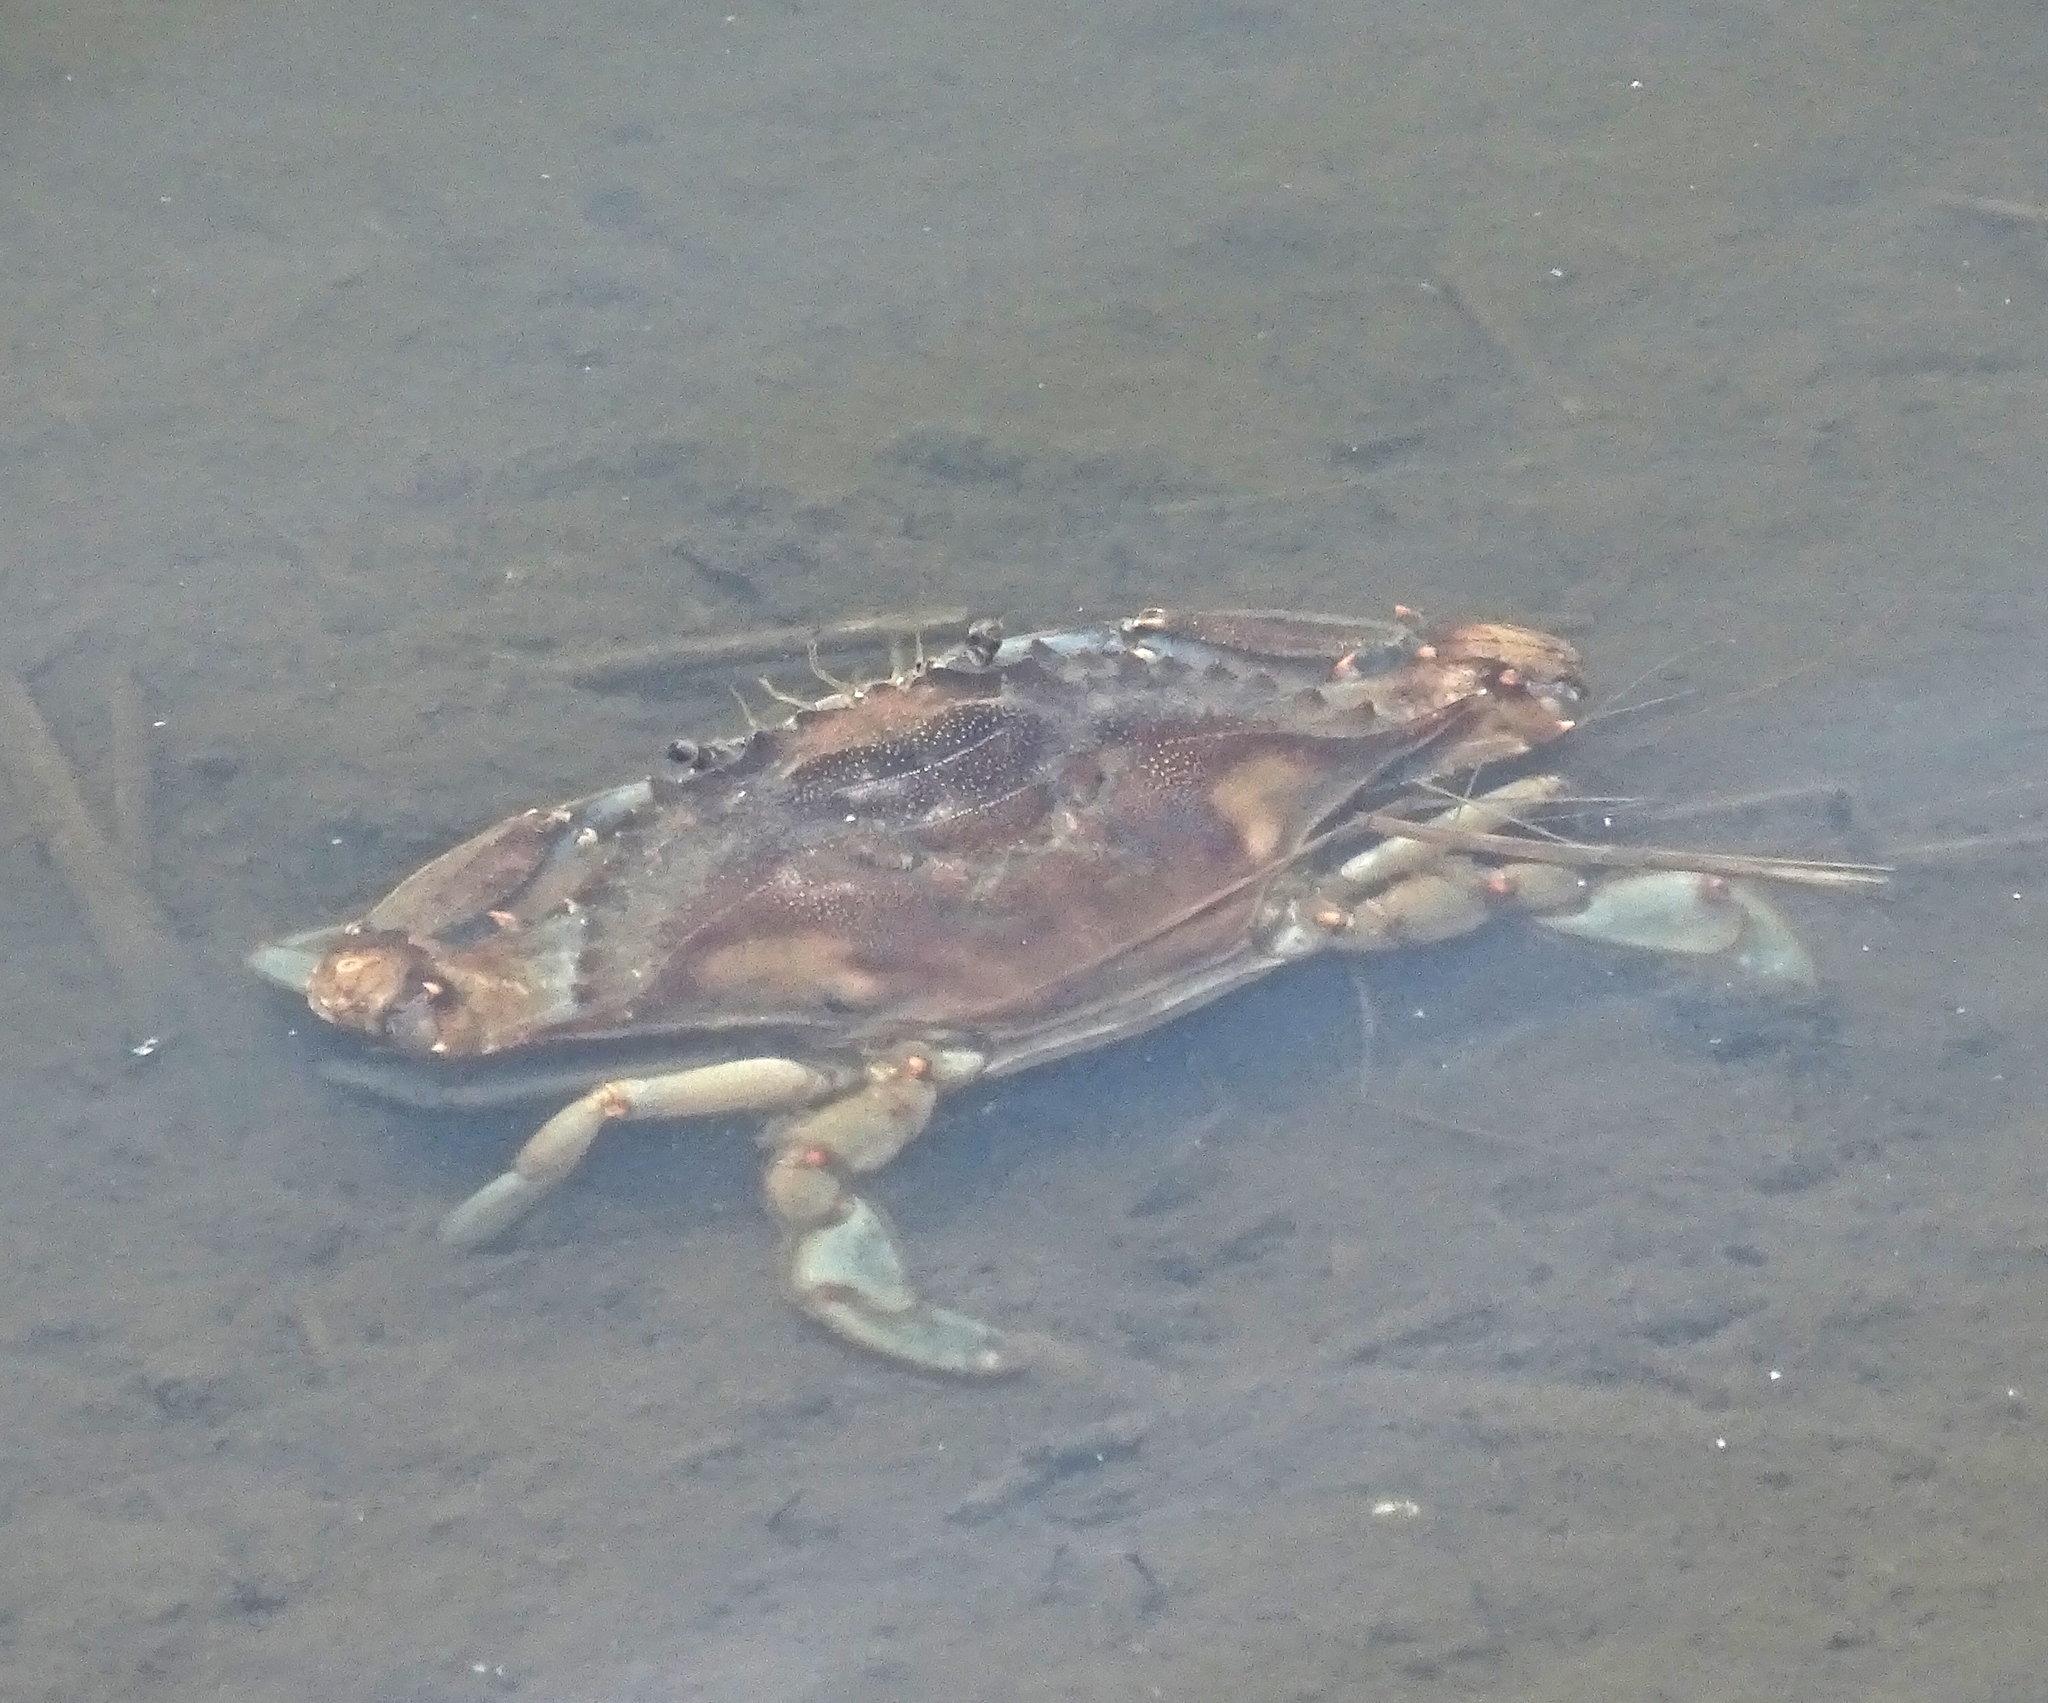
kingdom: Animalia
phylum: Arthropoda
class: Malacostraca
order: Decapoda
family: Portunidae
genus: Callinectes
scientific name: Callinectes sapidus
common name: Blue crab
